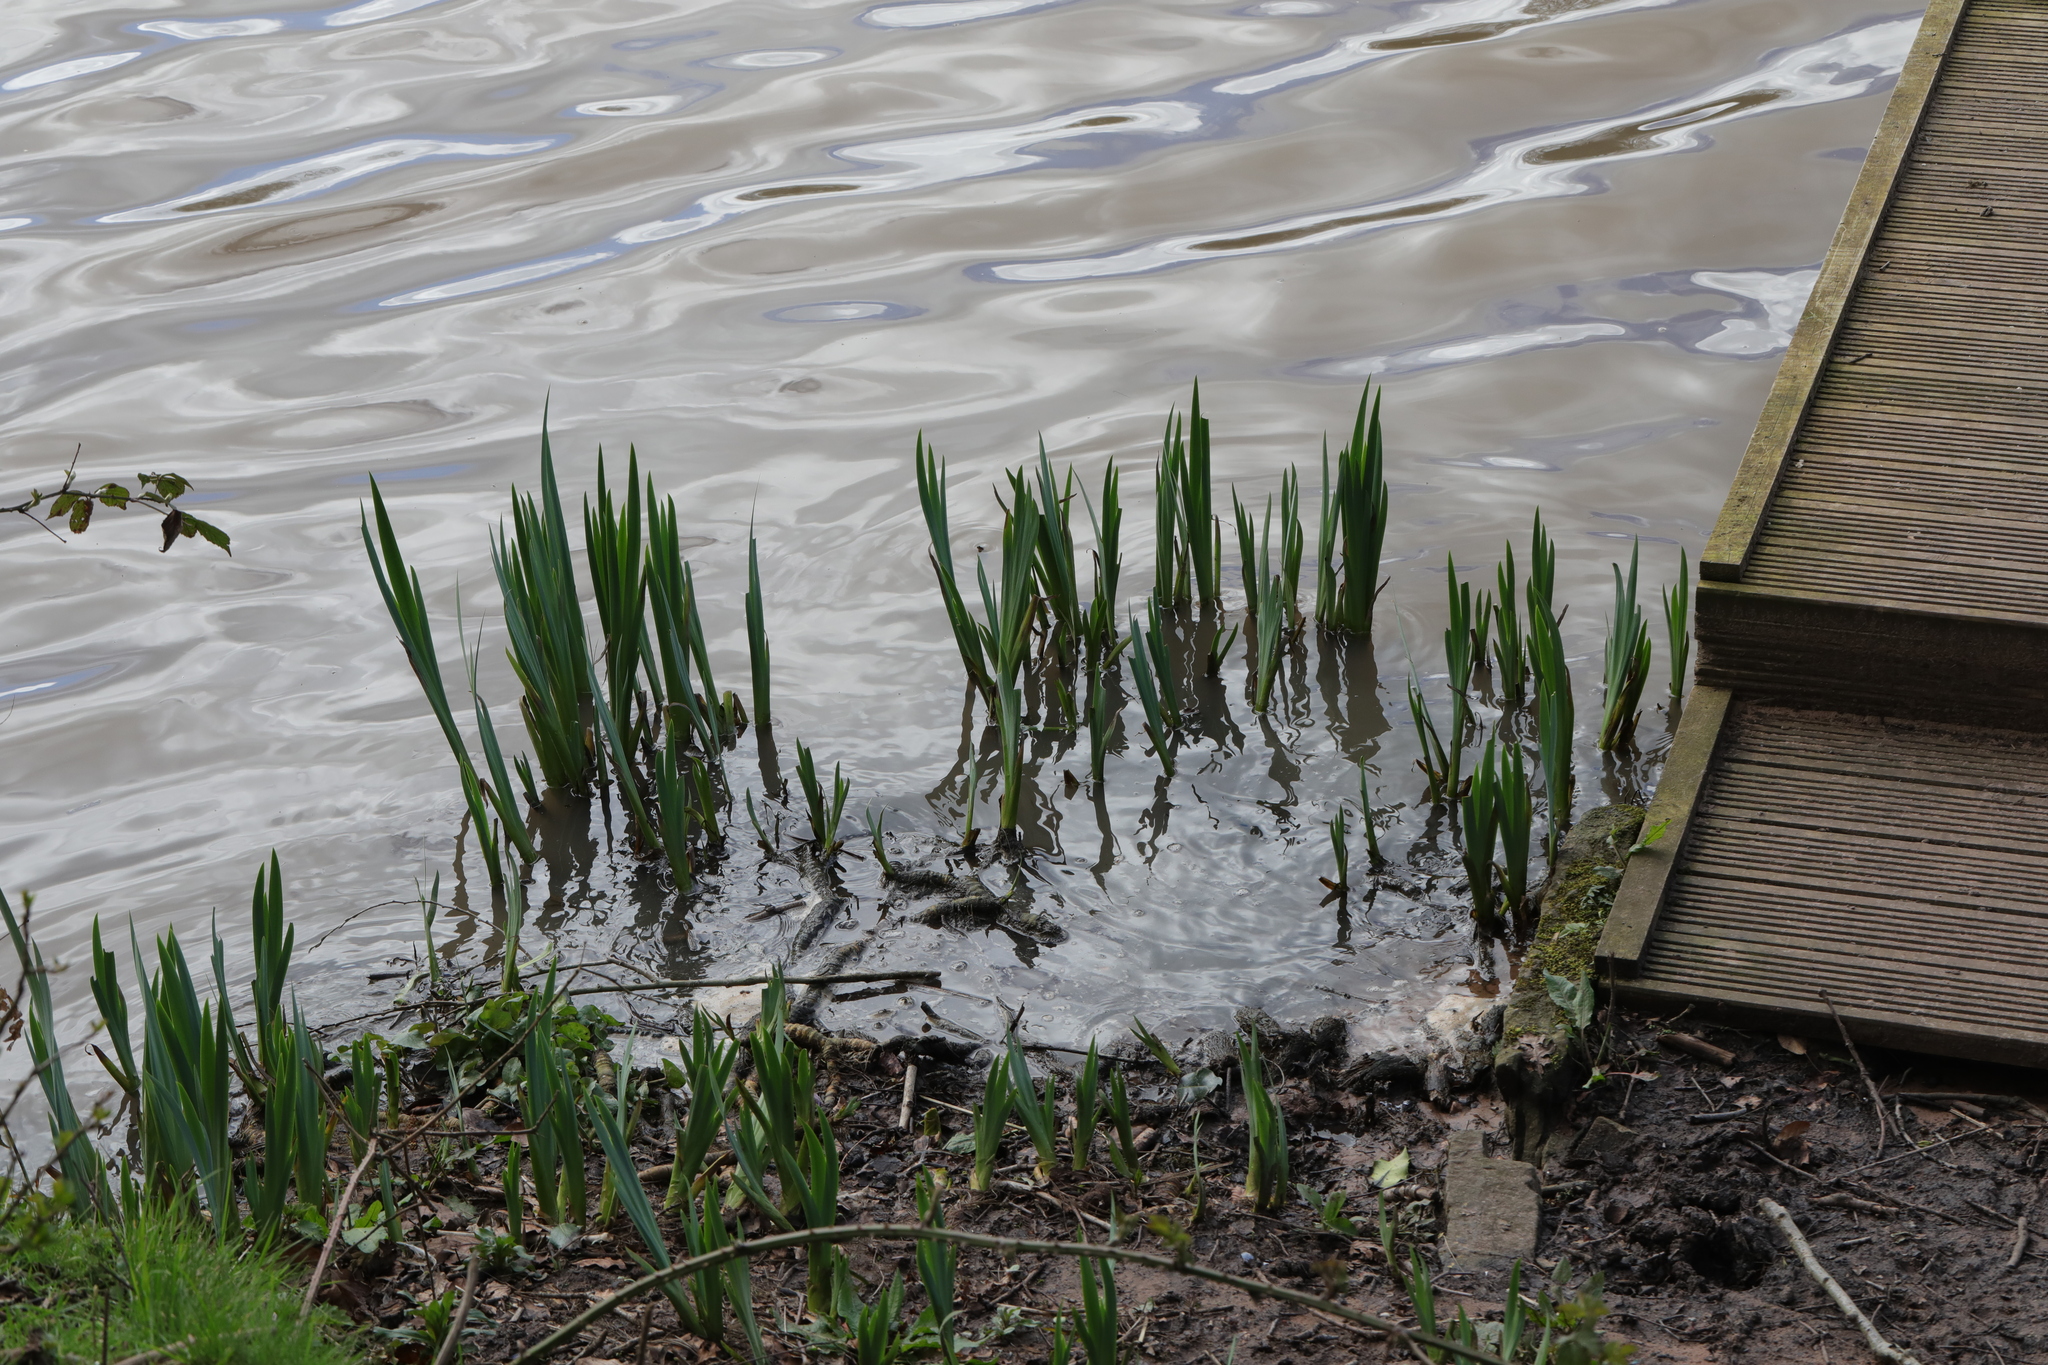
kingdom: Plantae
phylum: Tracheophyta
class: Liliopsida
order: Asparagales
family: Iridaceae
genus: Iris
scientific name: Iris pseudacorus
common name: Yellow flag
